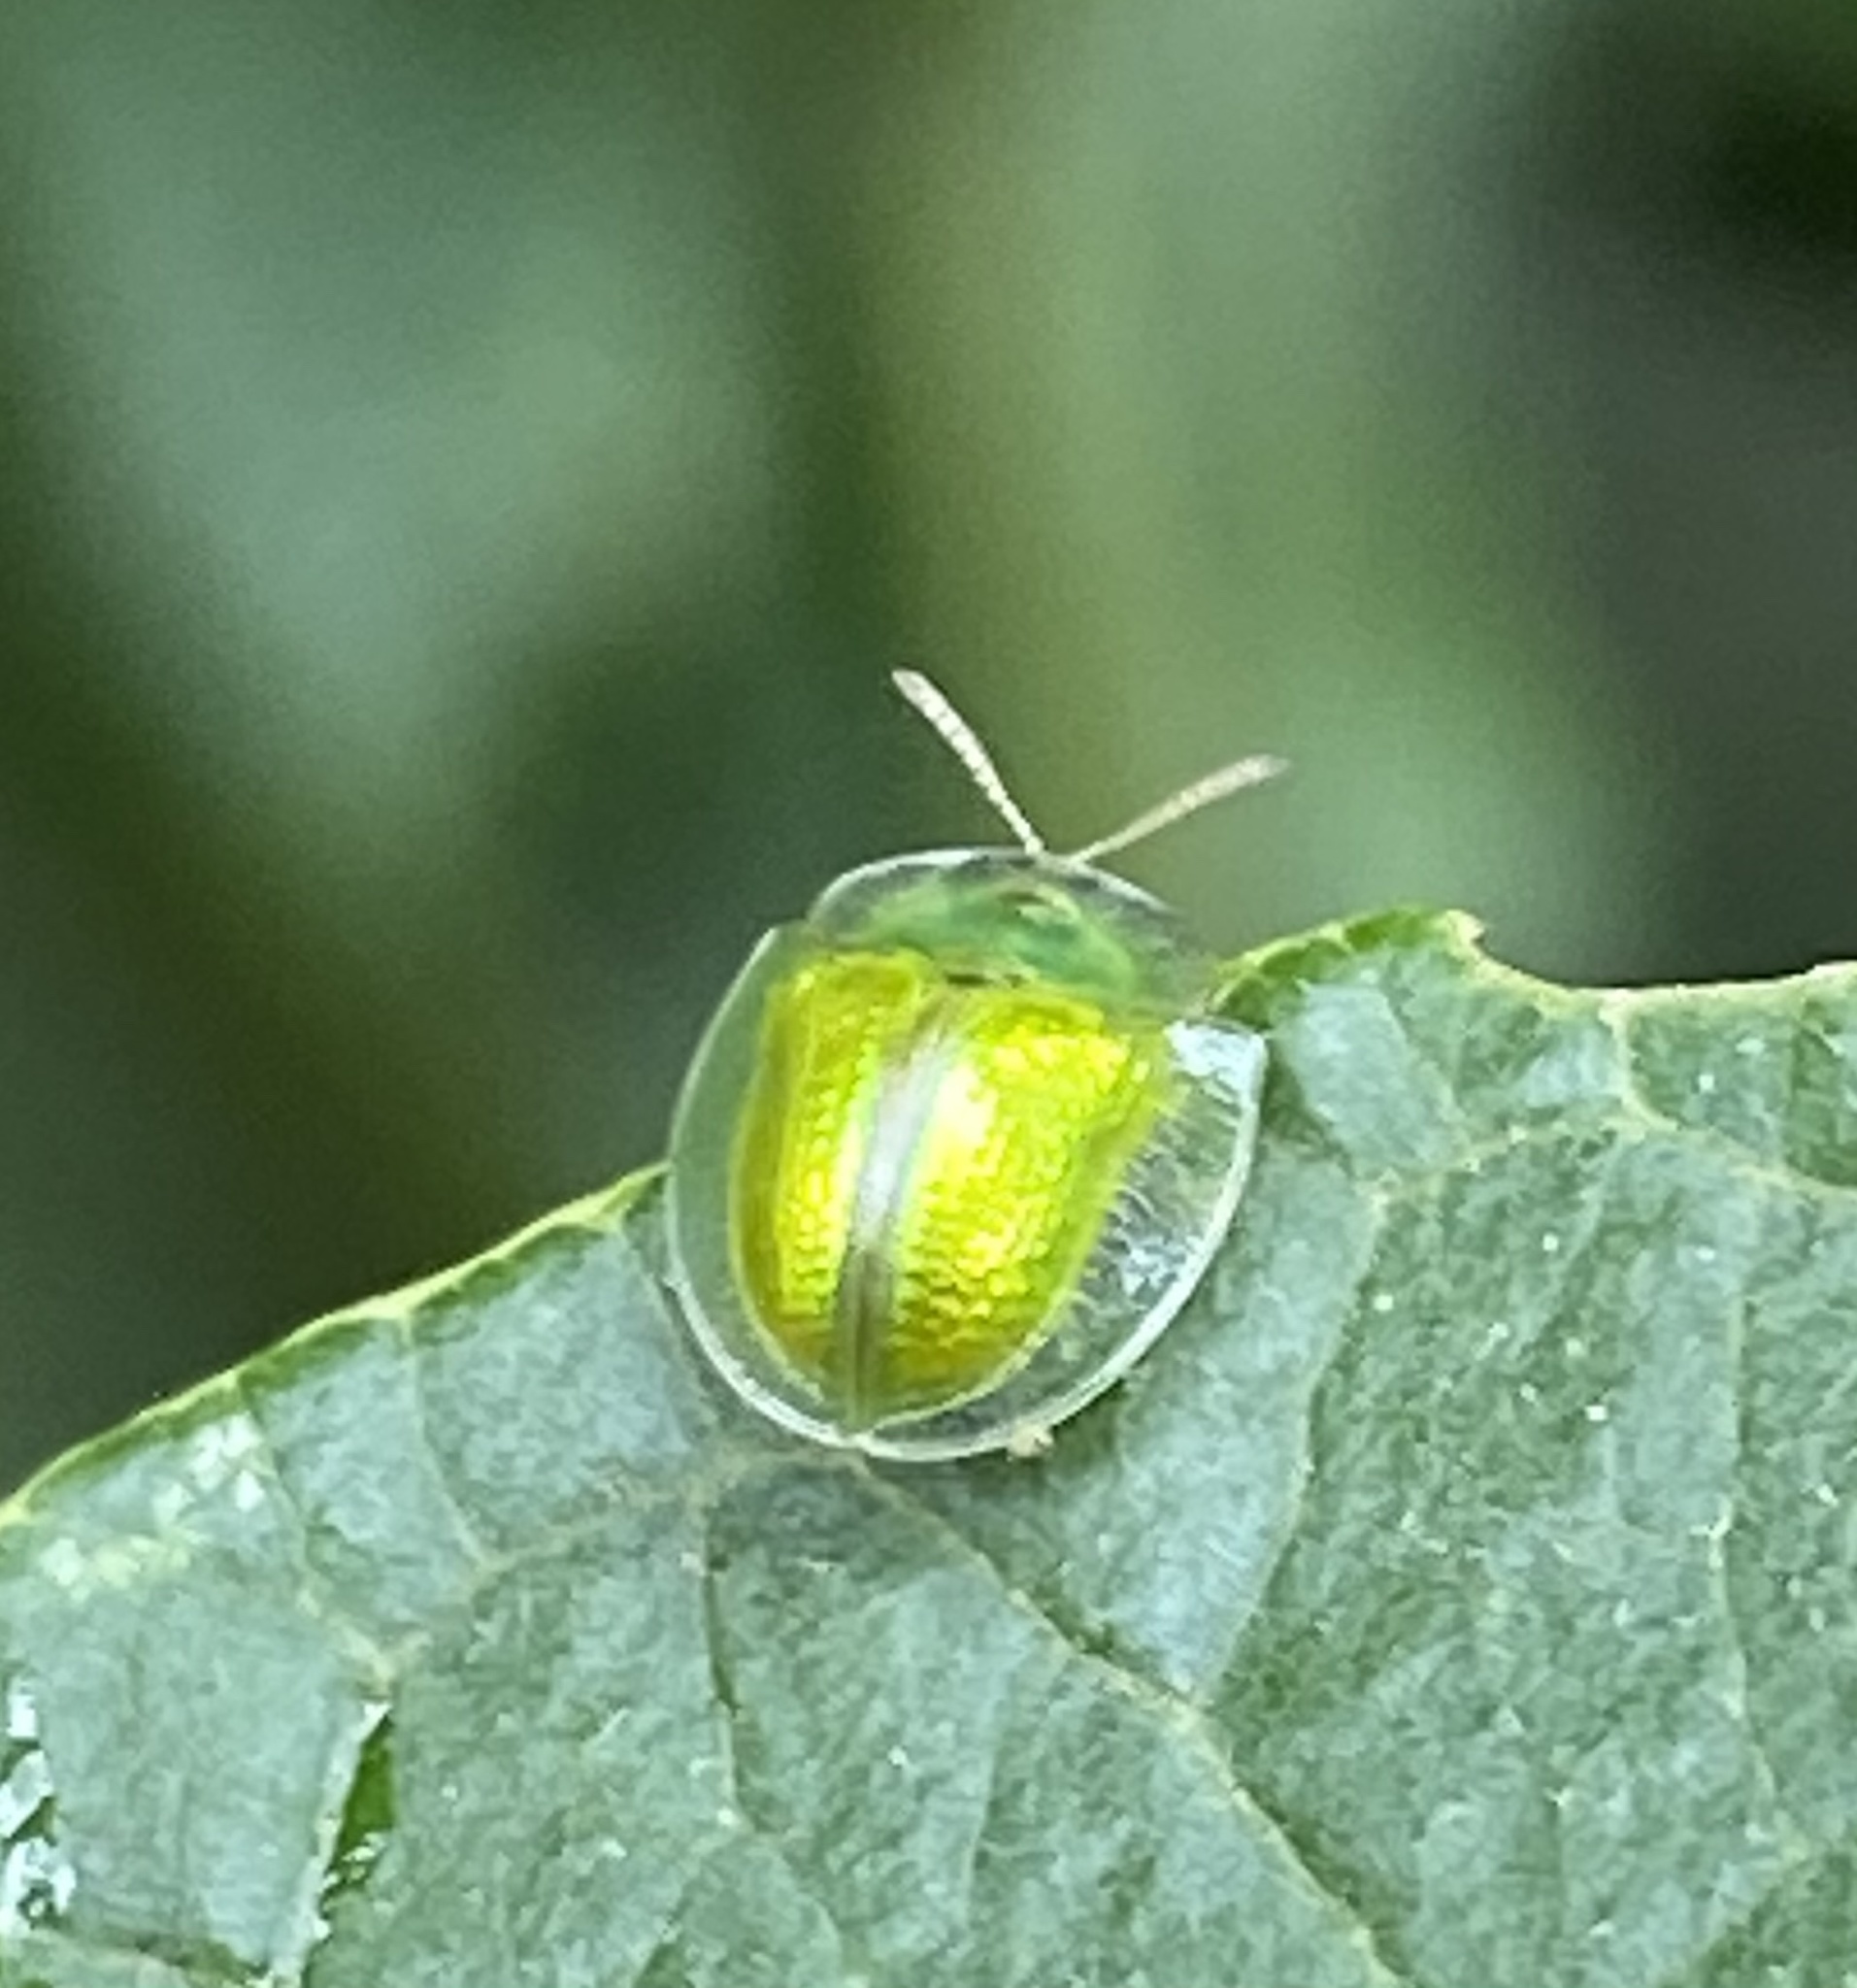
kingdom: Animalia
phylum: Arthropoda
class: Insecta
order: Coleoptera
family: Chrysomelidae
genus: Plagiometriona
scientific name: Plagiometriona herbea
